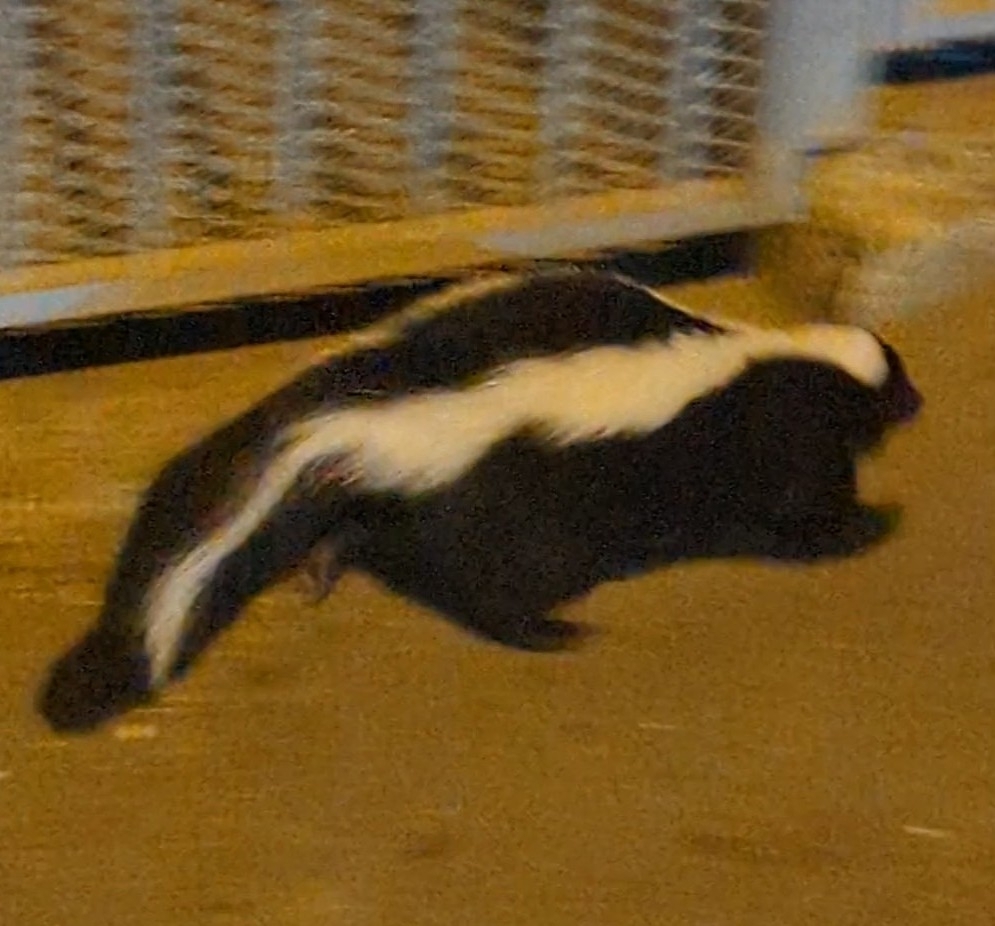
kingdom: Animalia
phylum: Chordata
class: Mammalia
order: Carnivora
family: Mephitidae
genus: Mephitis
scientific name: Mephitis mephitis
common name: Striped skunk
